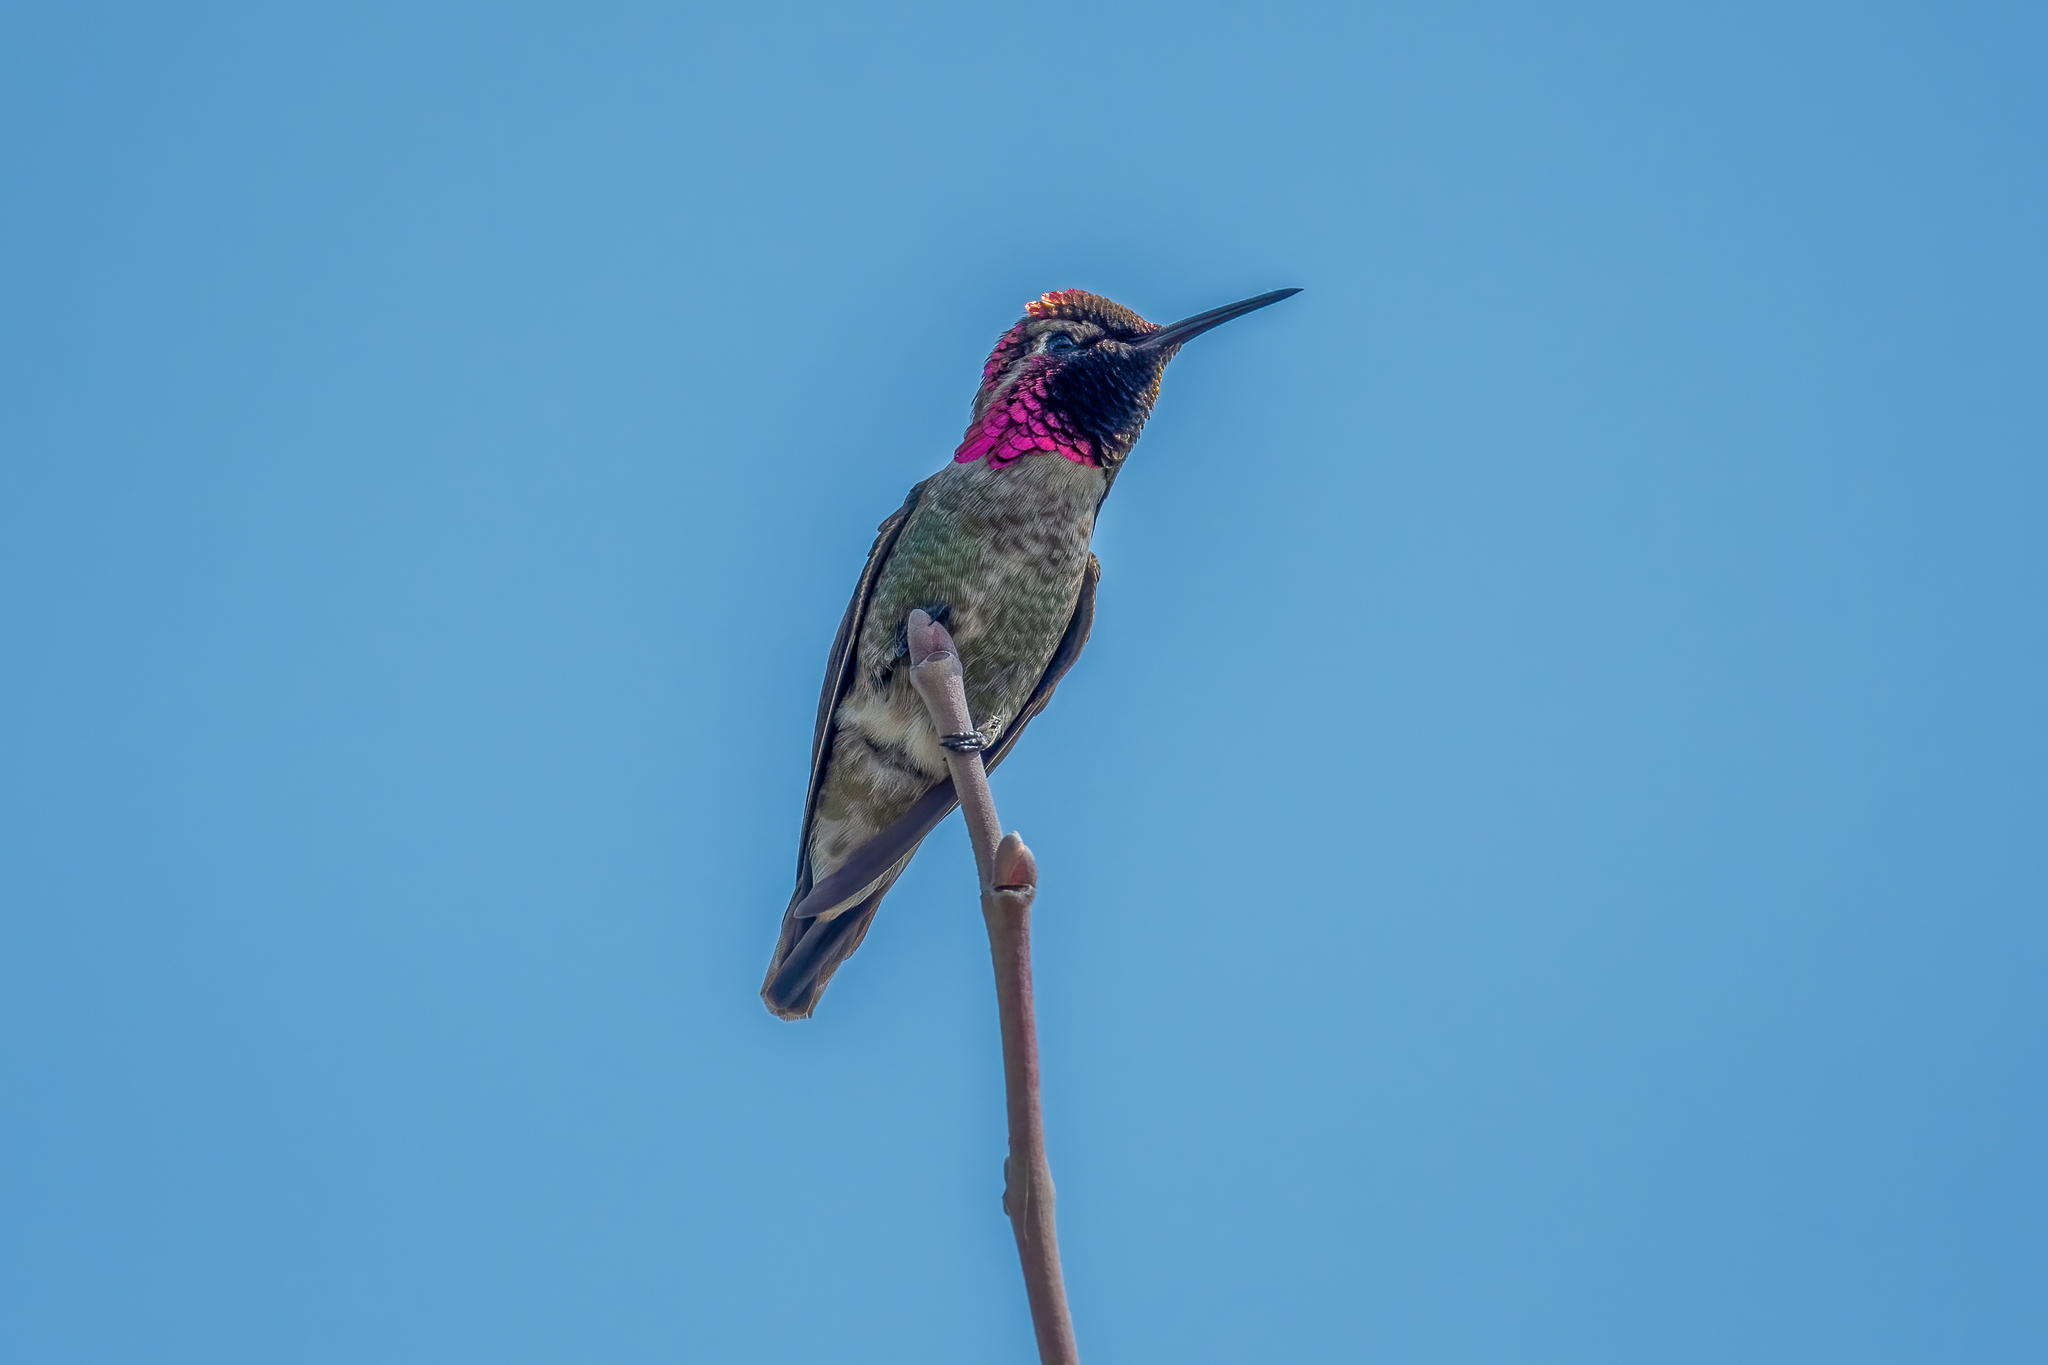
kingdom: Animalia
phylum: Chordata
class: Aves
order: Apodiformes
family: Trochilidae
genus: Calypte
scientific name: Calypte anna
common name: Anna's hummingbird
